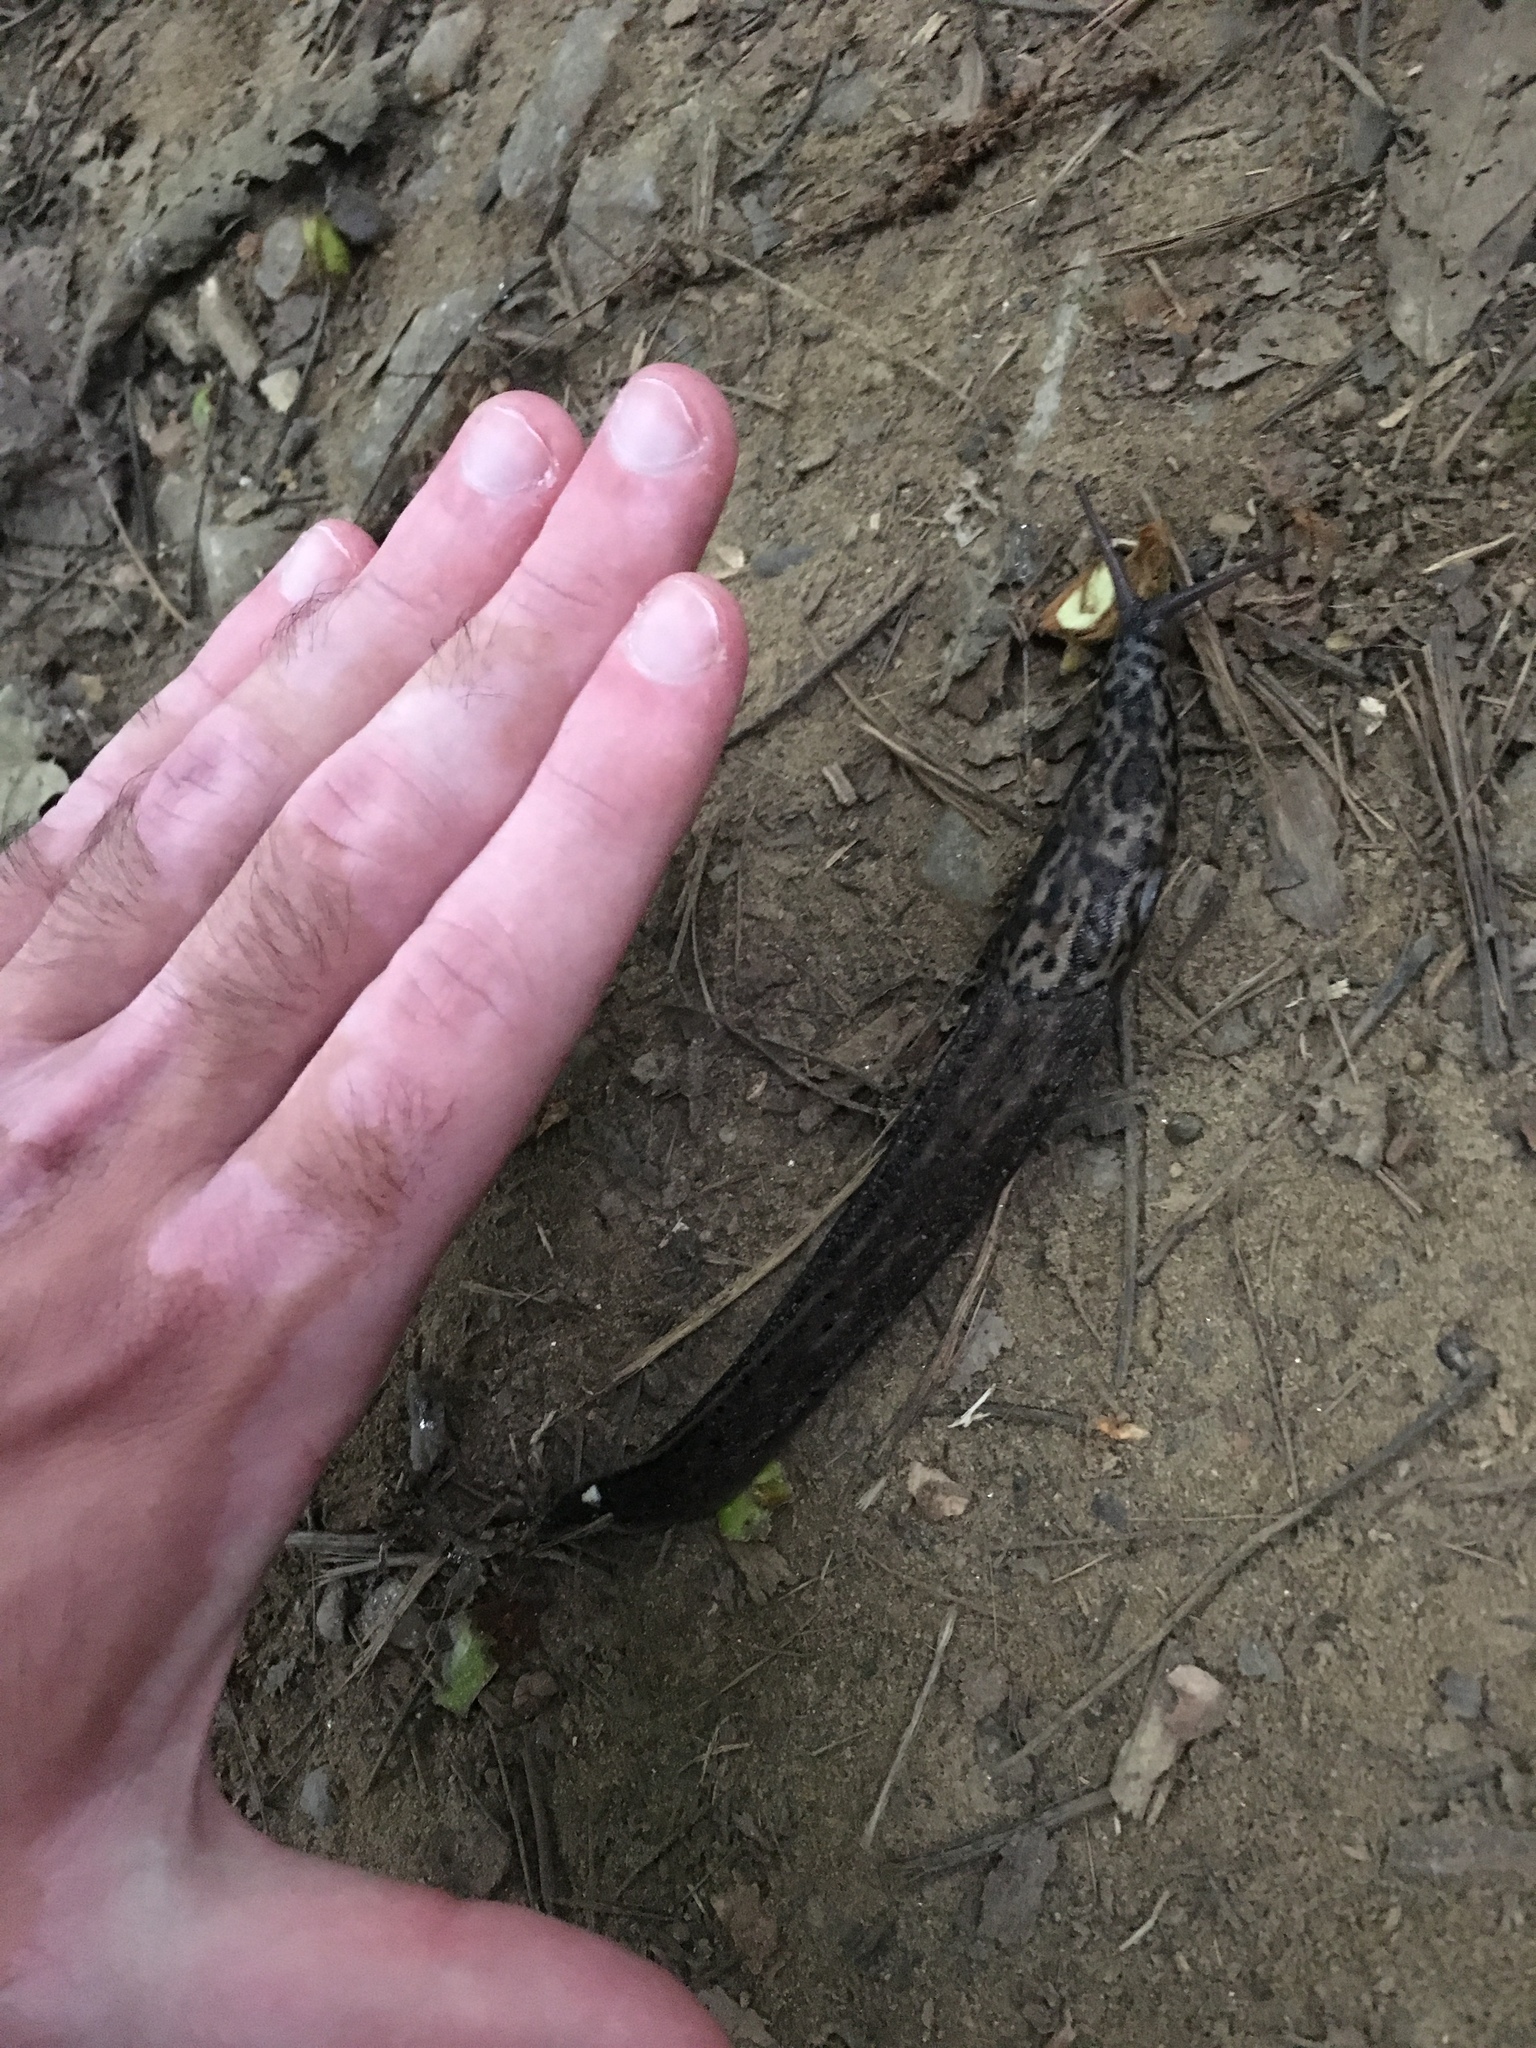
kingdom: Animalia
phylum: Mollusca
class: Gastropoda
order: Stylommatophora
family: Limacidae
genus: Limax
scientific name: Limax maximus
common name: Great grey slug
